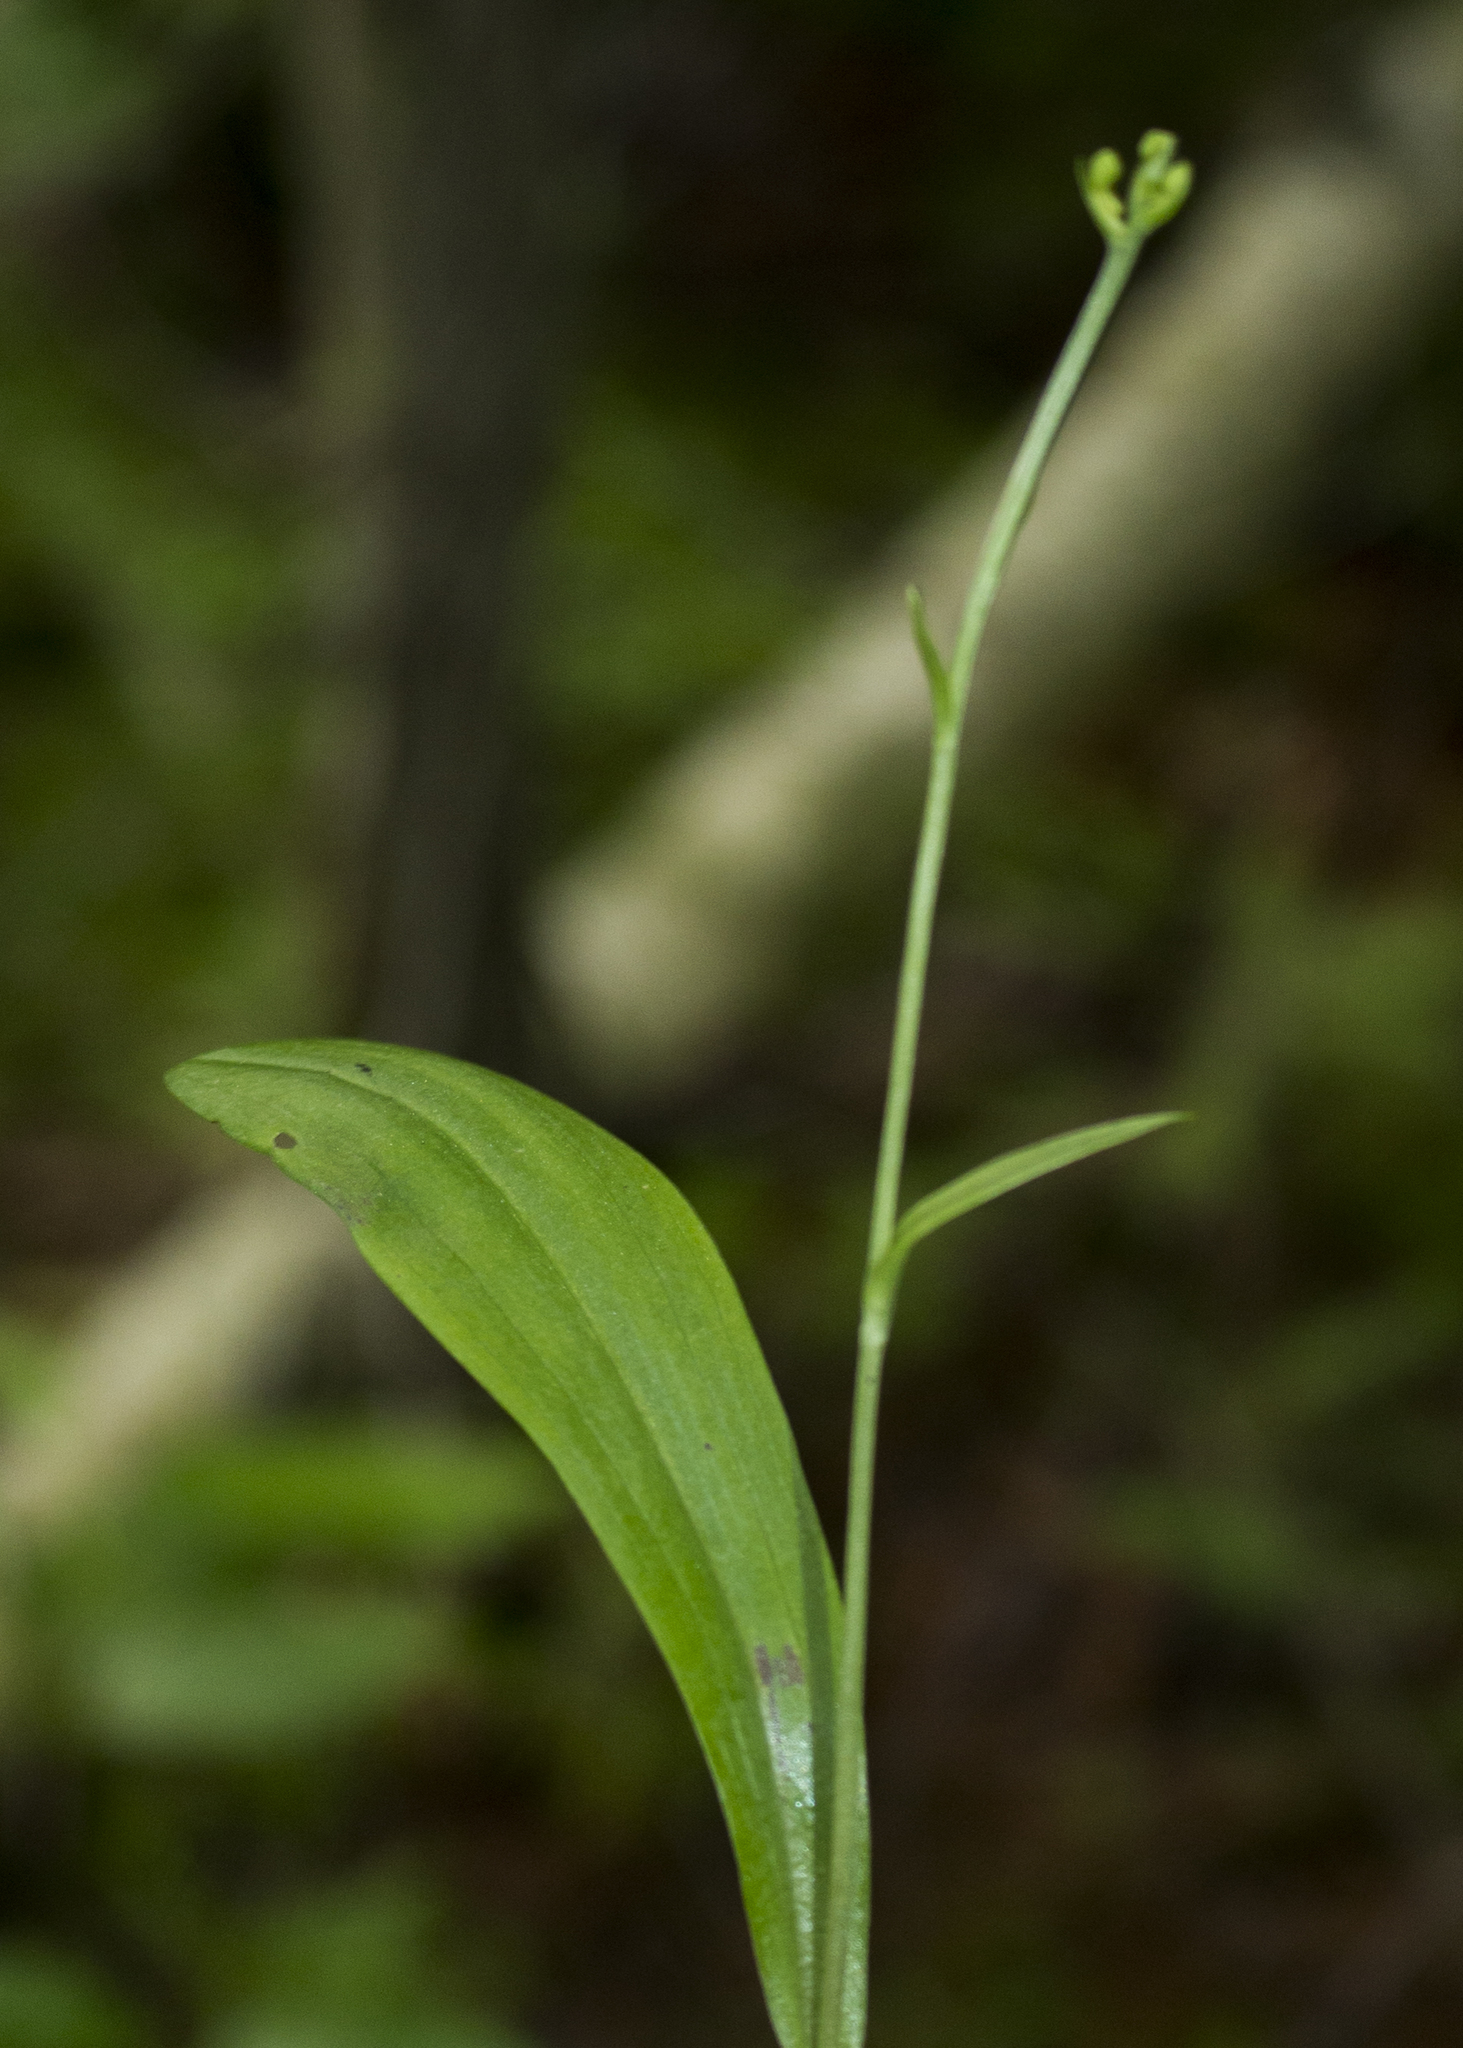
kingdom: Plantae
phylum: Tracheophyta
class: Liliopsida
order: Asparagales
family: Orchidaceae
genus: Platanthera
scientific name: Platanthera clavellata
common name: Club-spur orchid
